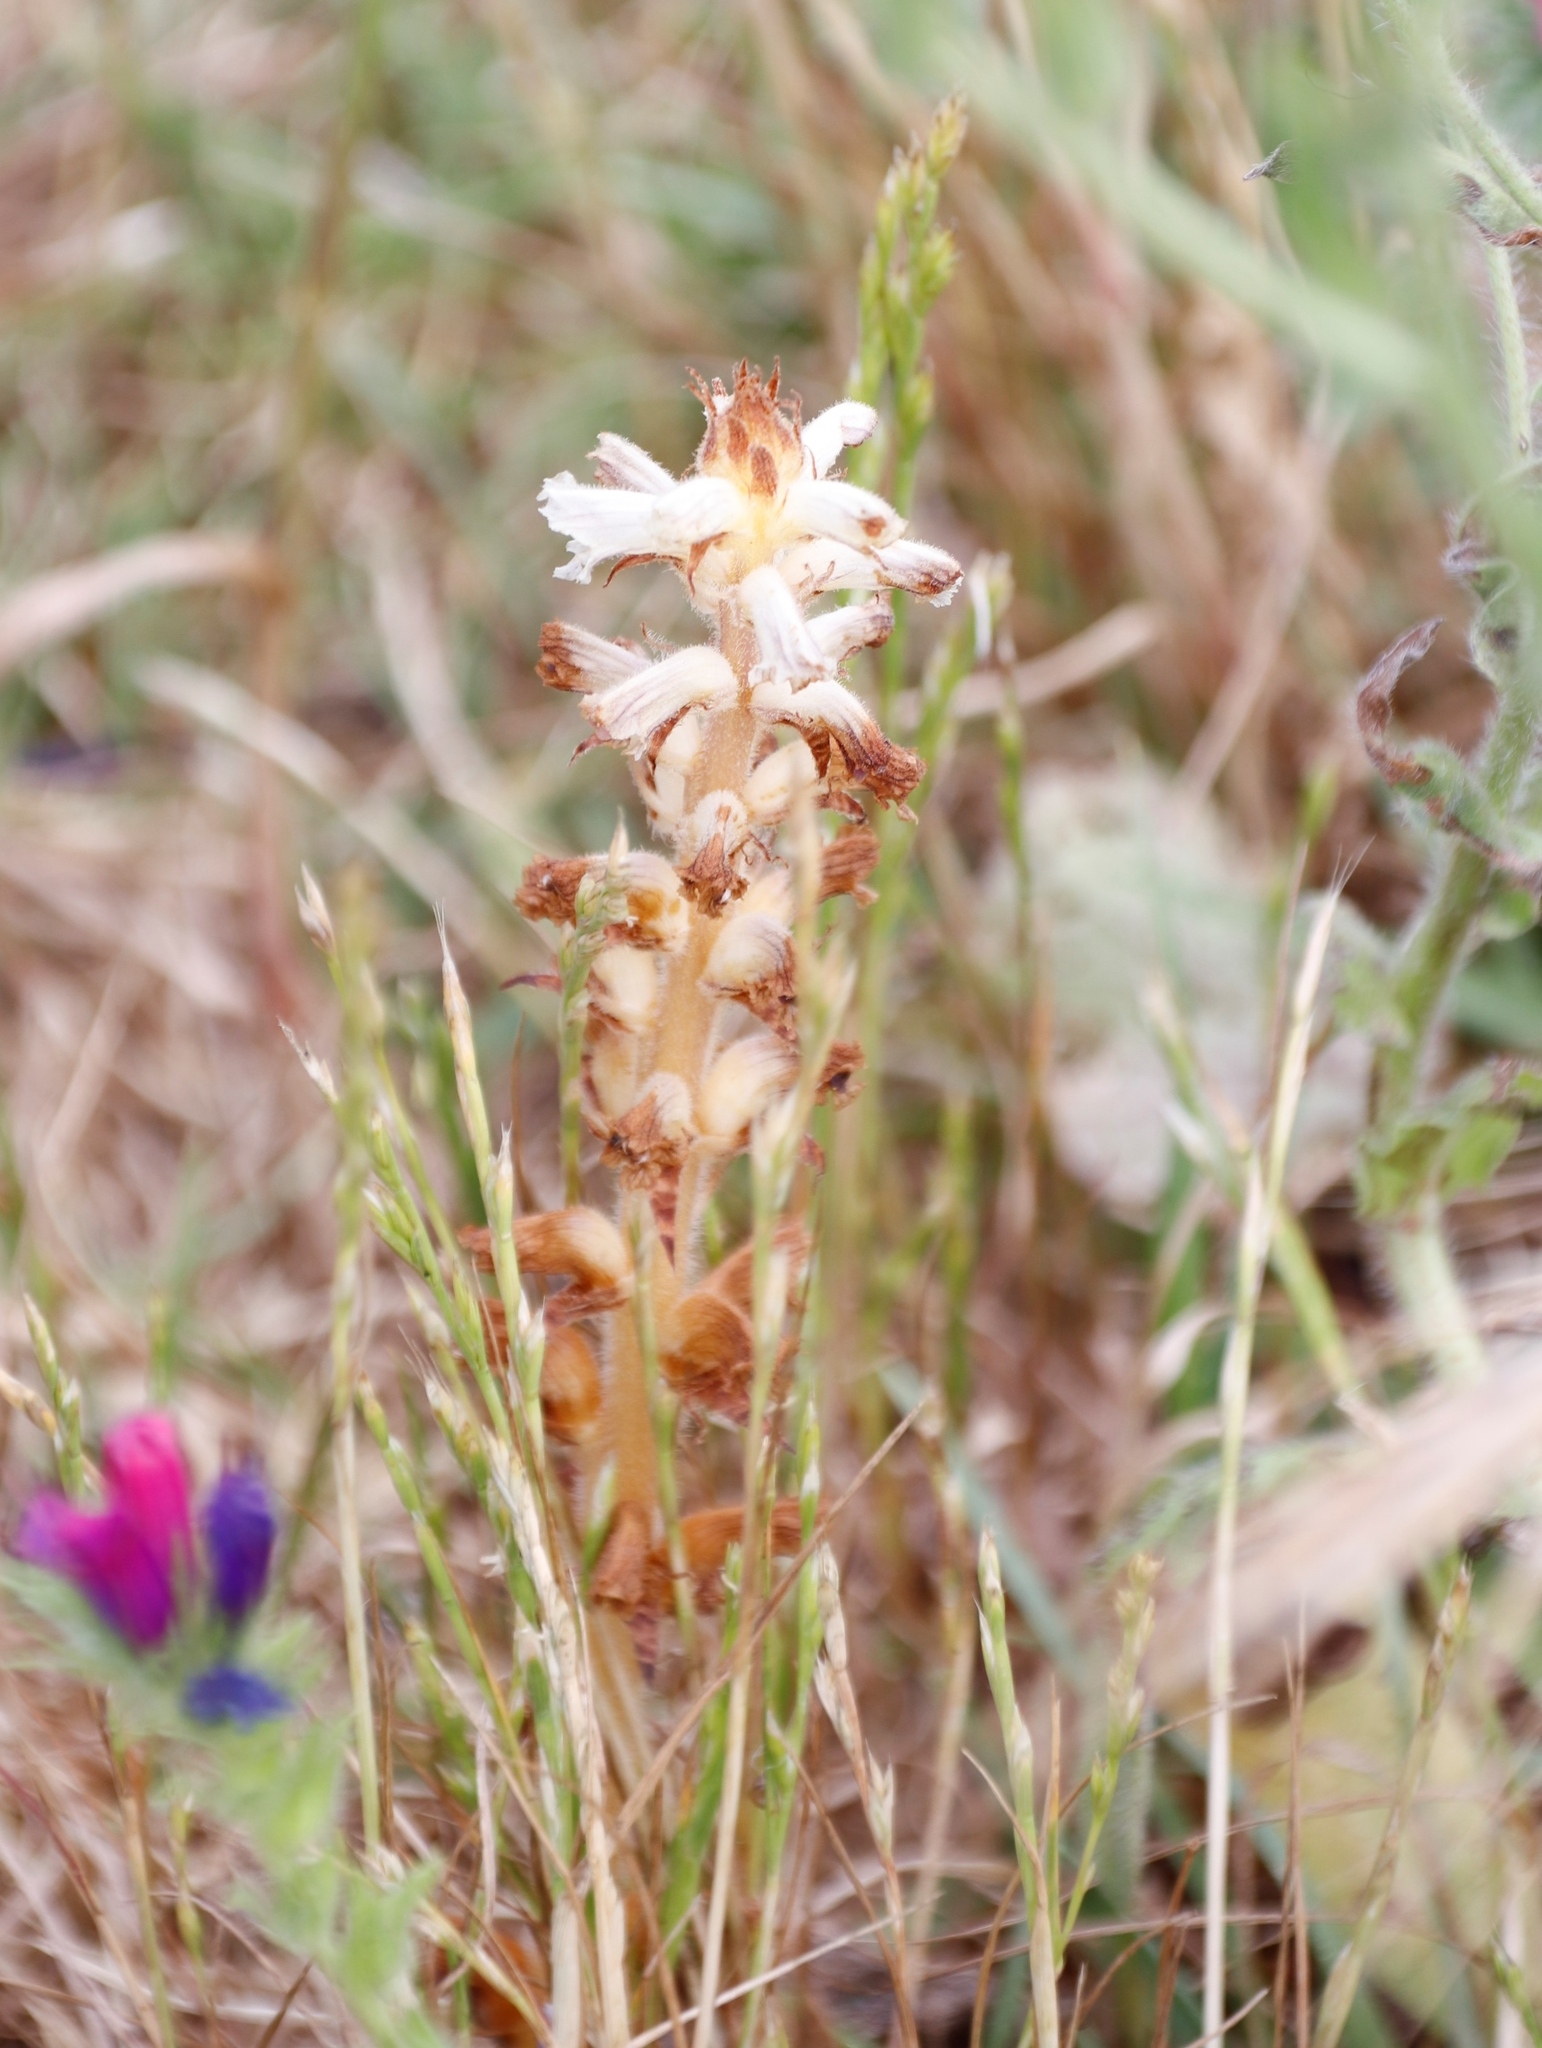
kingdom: Plantae
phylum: Tracheophyta
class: Magnoliopsida
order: Lamiales
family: Orobanchaceae
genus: Orobanche
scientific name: Orobanche minor
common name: Common broomrape
